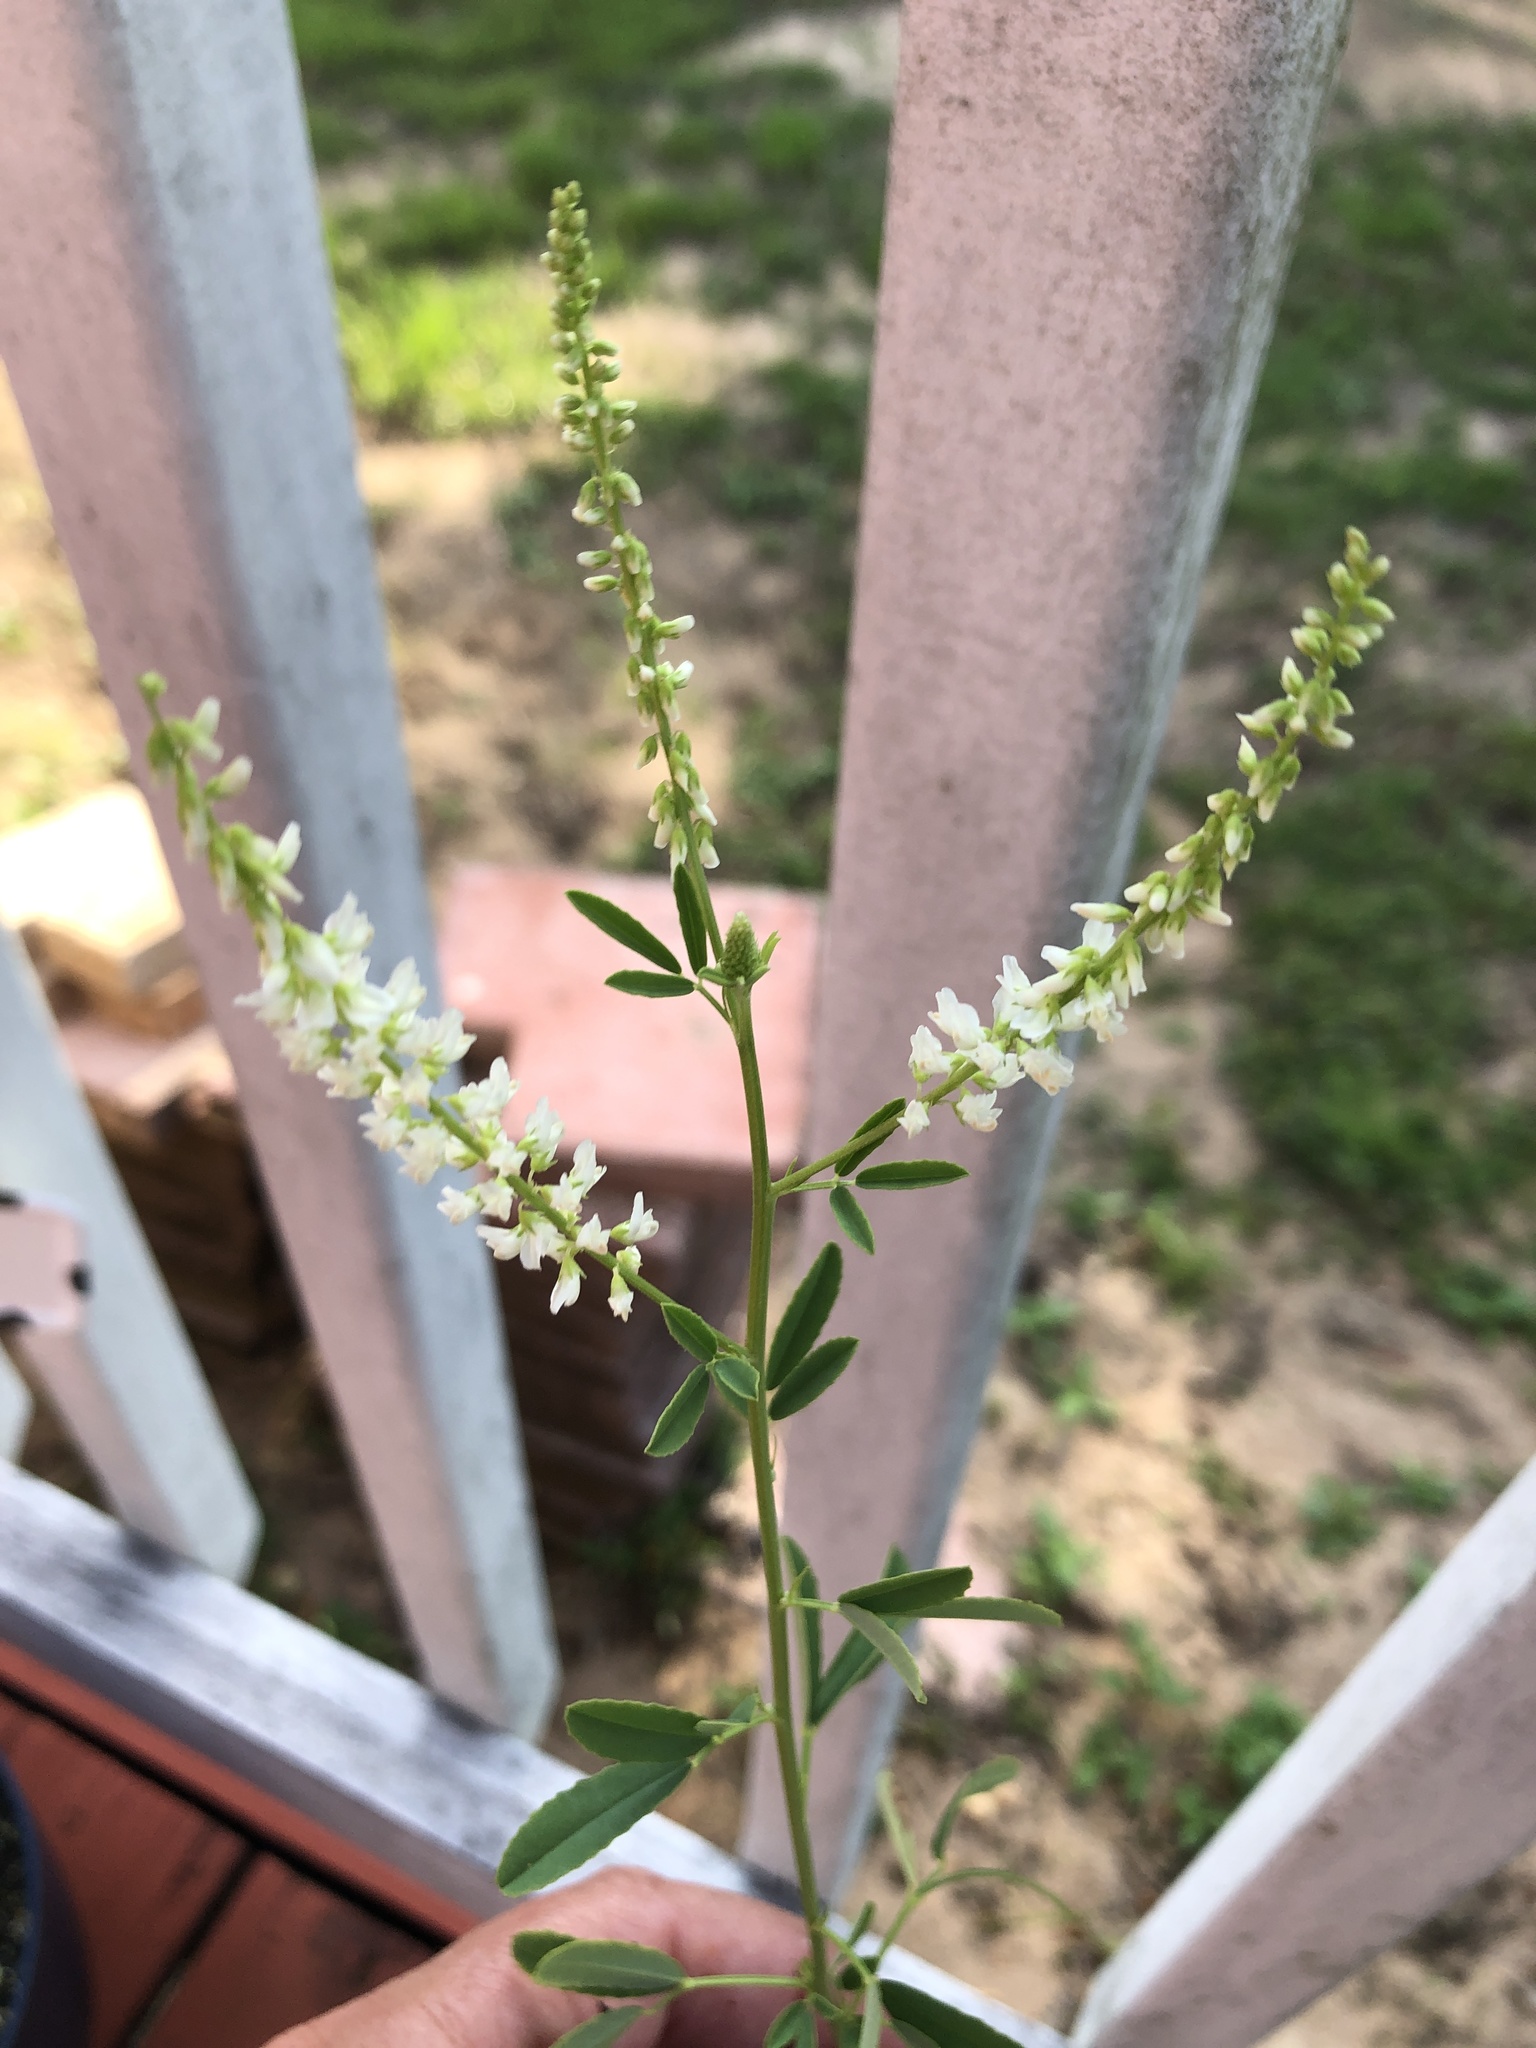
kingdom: Plantae
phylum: Tracheophyta
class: Magnoliopsida
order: Fabales
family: Fabaceae
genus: Melilotus
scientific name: Melilotus albus
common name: White melilot
